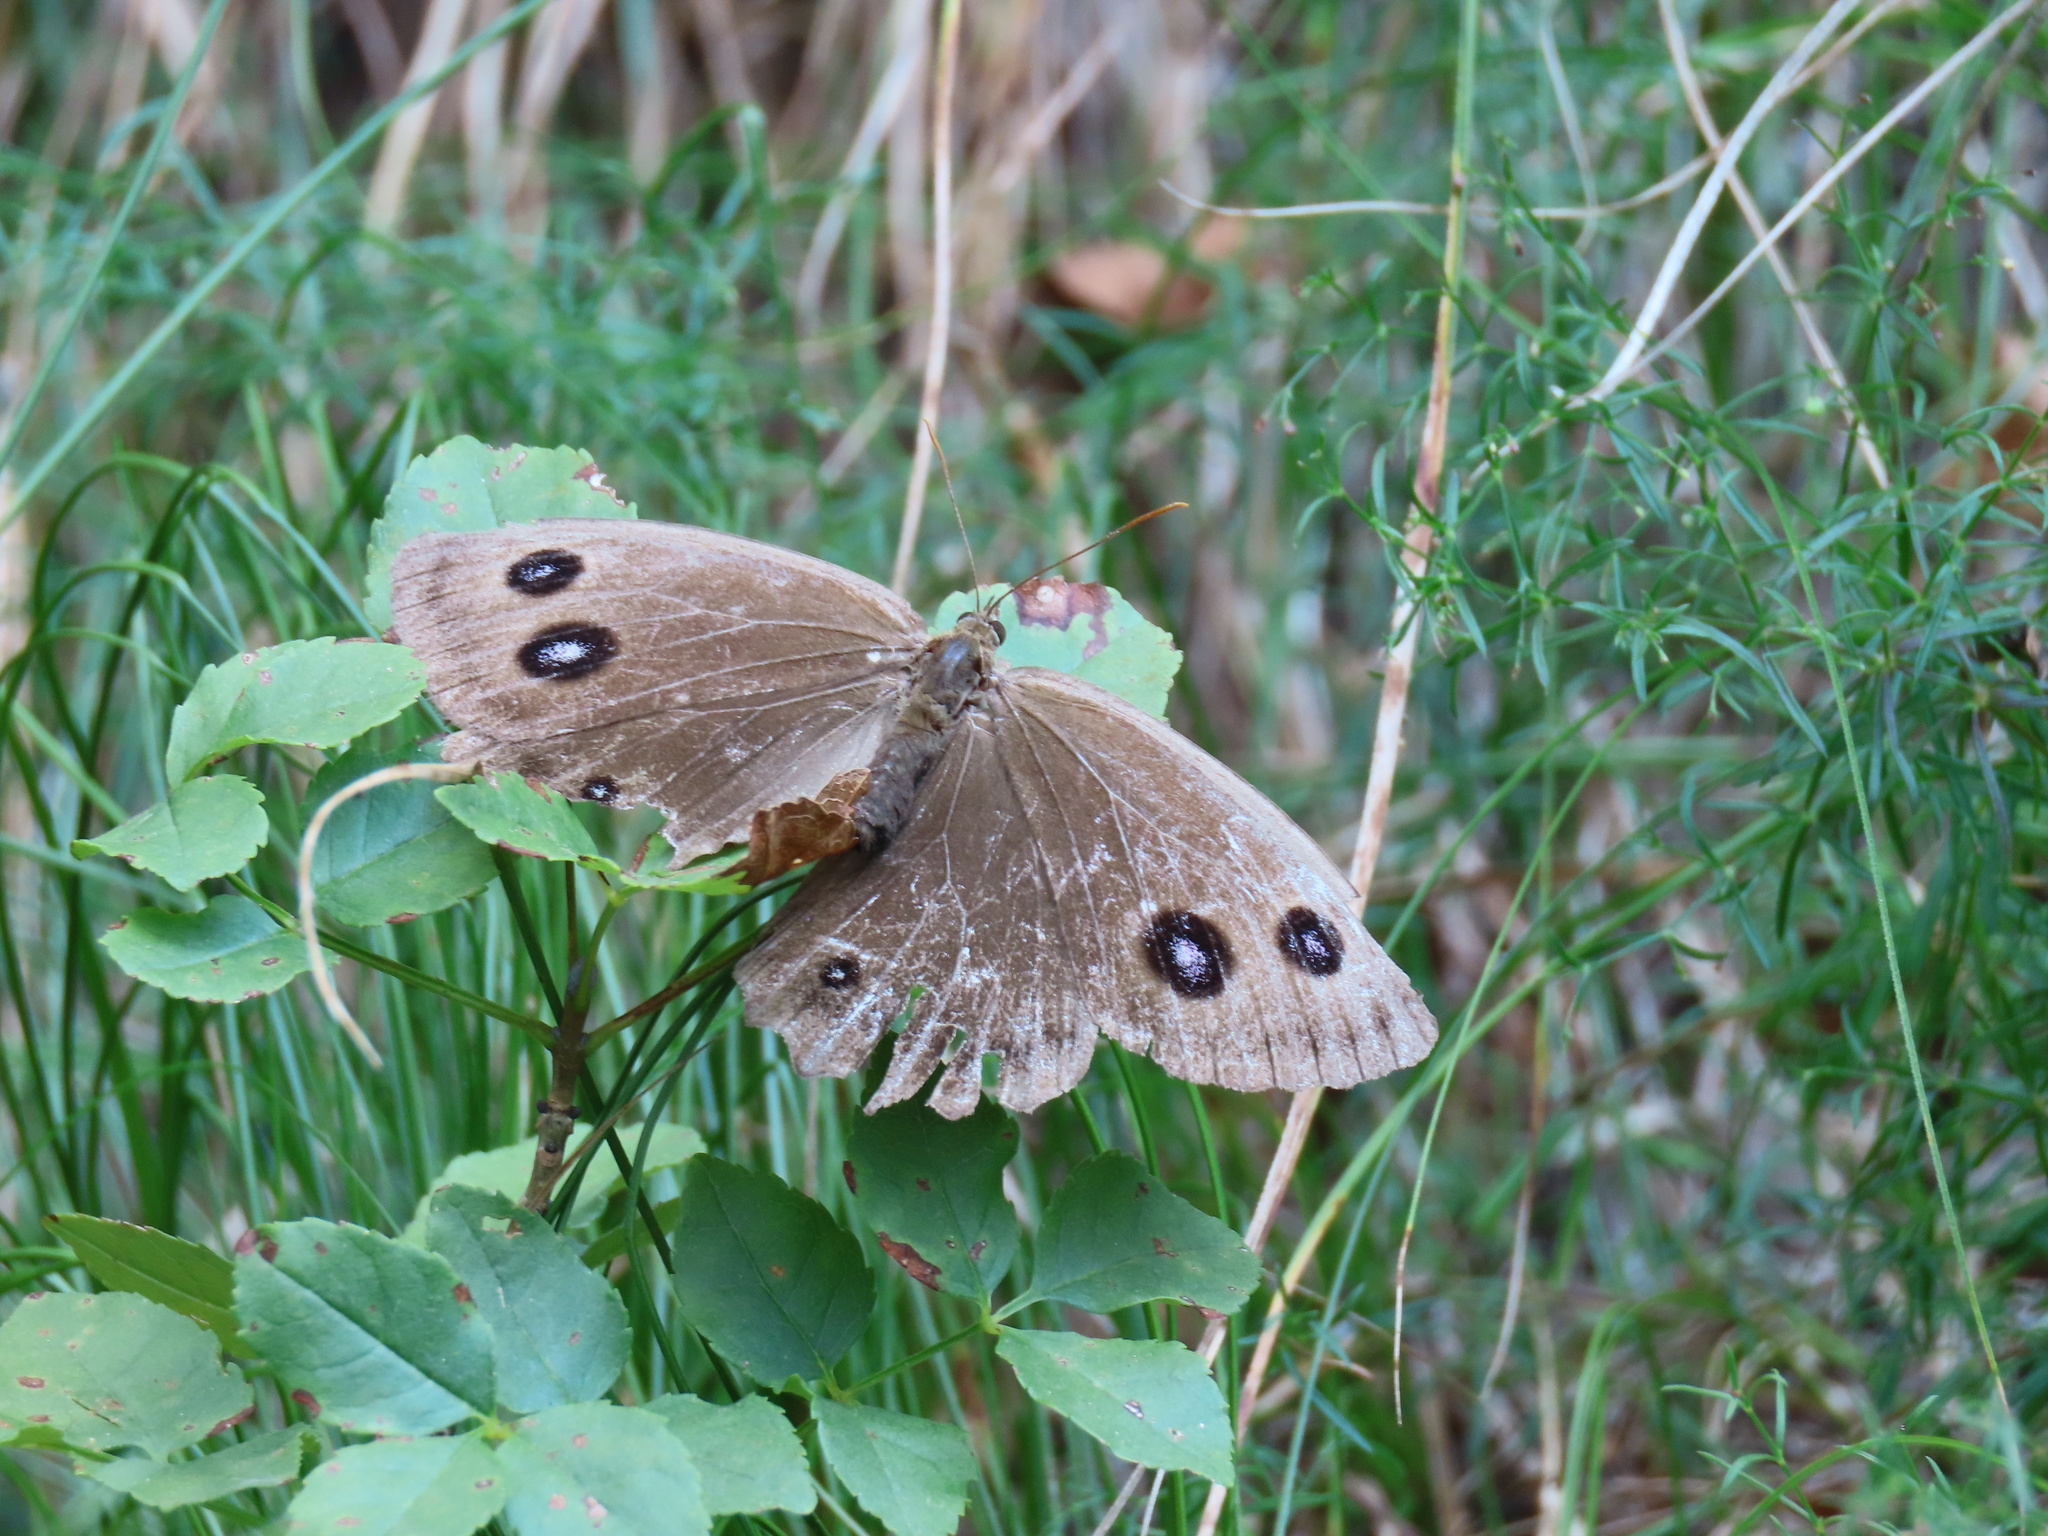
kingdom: Animalia
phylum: Arthropoda
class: Insecta
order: Lepidoptera
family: Nymphalidae
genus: Minois
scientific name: Minois dryas
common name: Dryad
